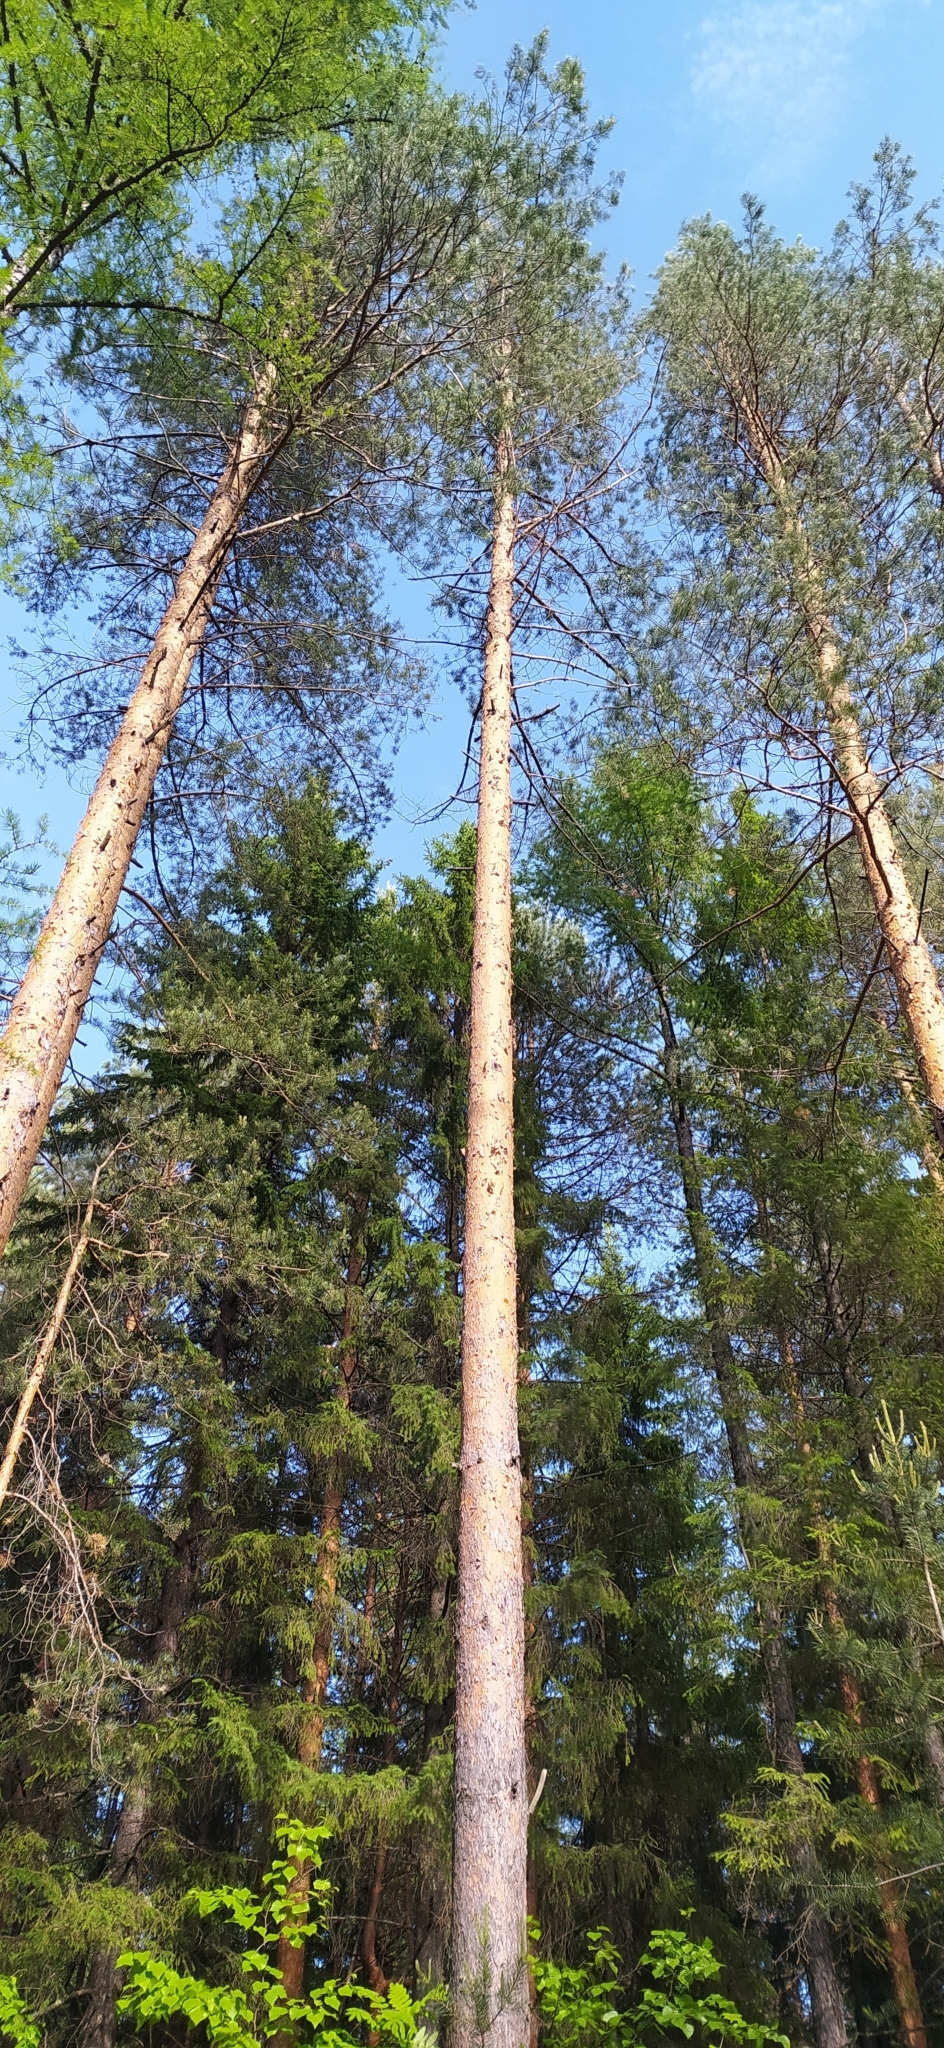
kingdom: Plantae
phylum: Tracheophyta
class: Pinopsida
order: Pinales
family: Pinaceae
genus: Pinus
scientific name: Pinus sylvestris
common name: Scots pine
